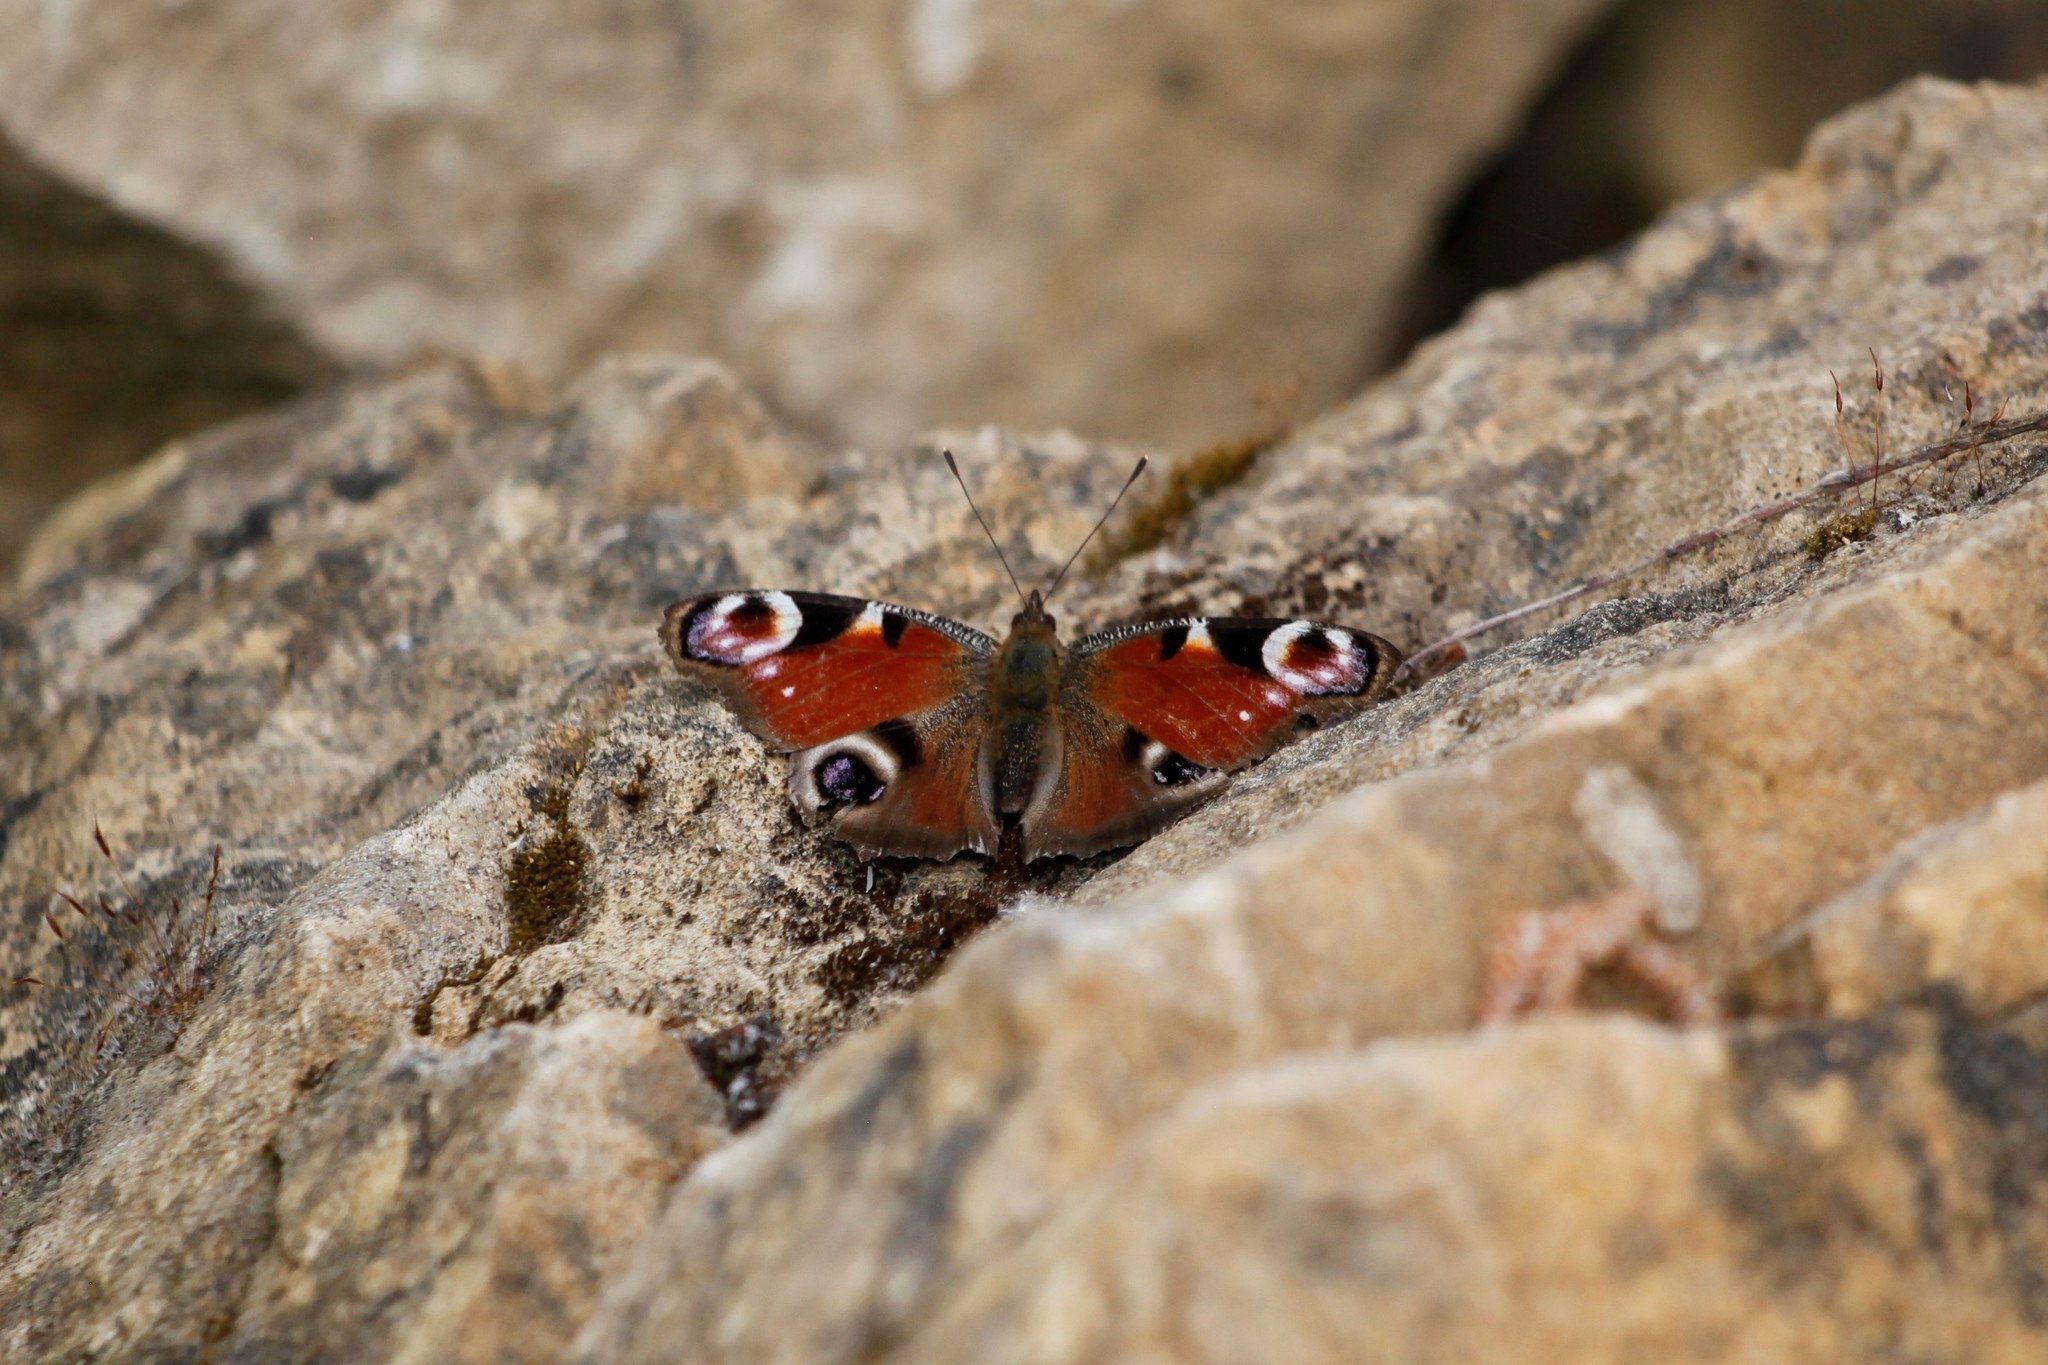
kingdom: Animalia
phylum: Arthropoda
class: Insecta
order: Lepidoptera
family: Nymphalidae
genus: Aglais
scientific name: Aglais io
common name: Peacock
